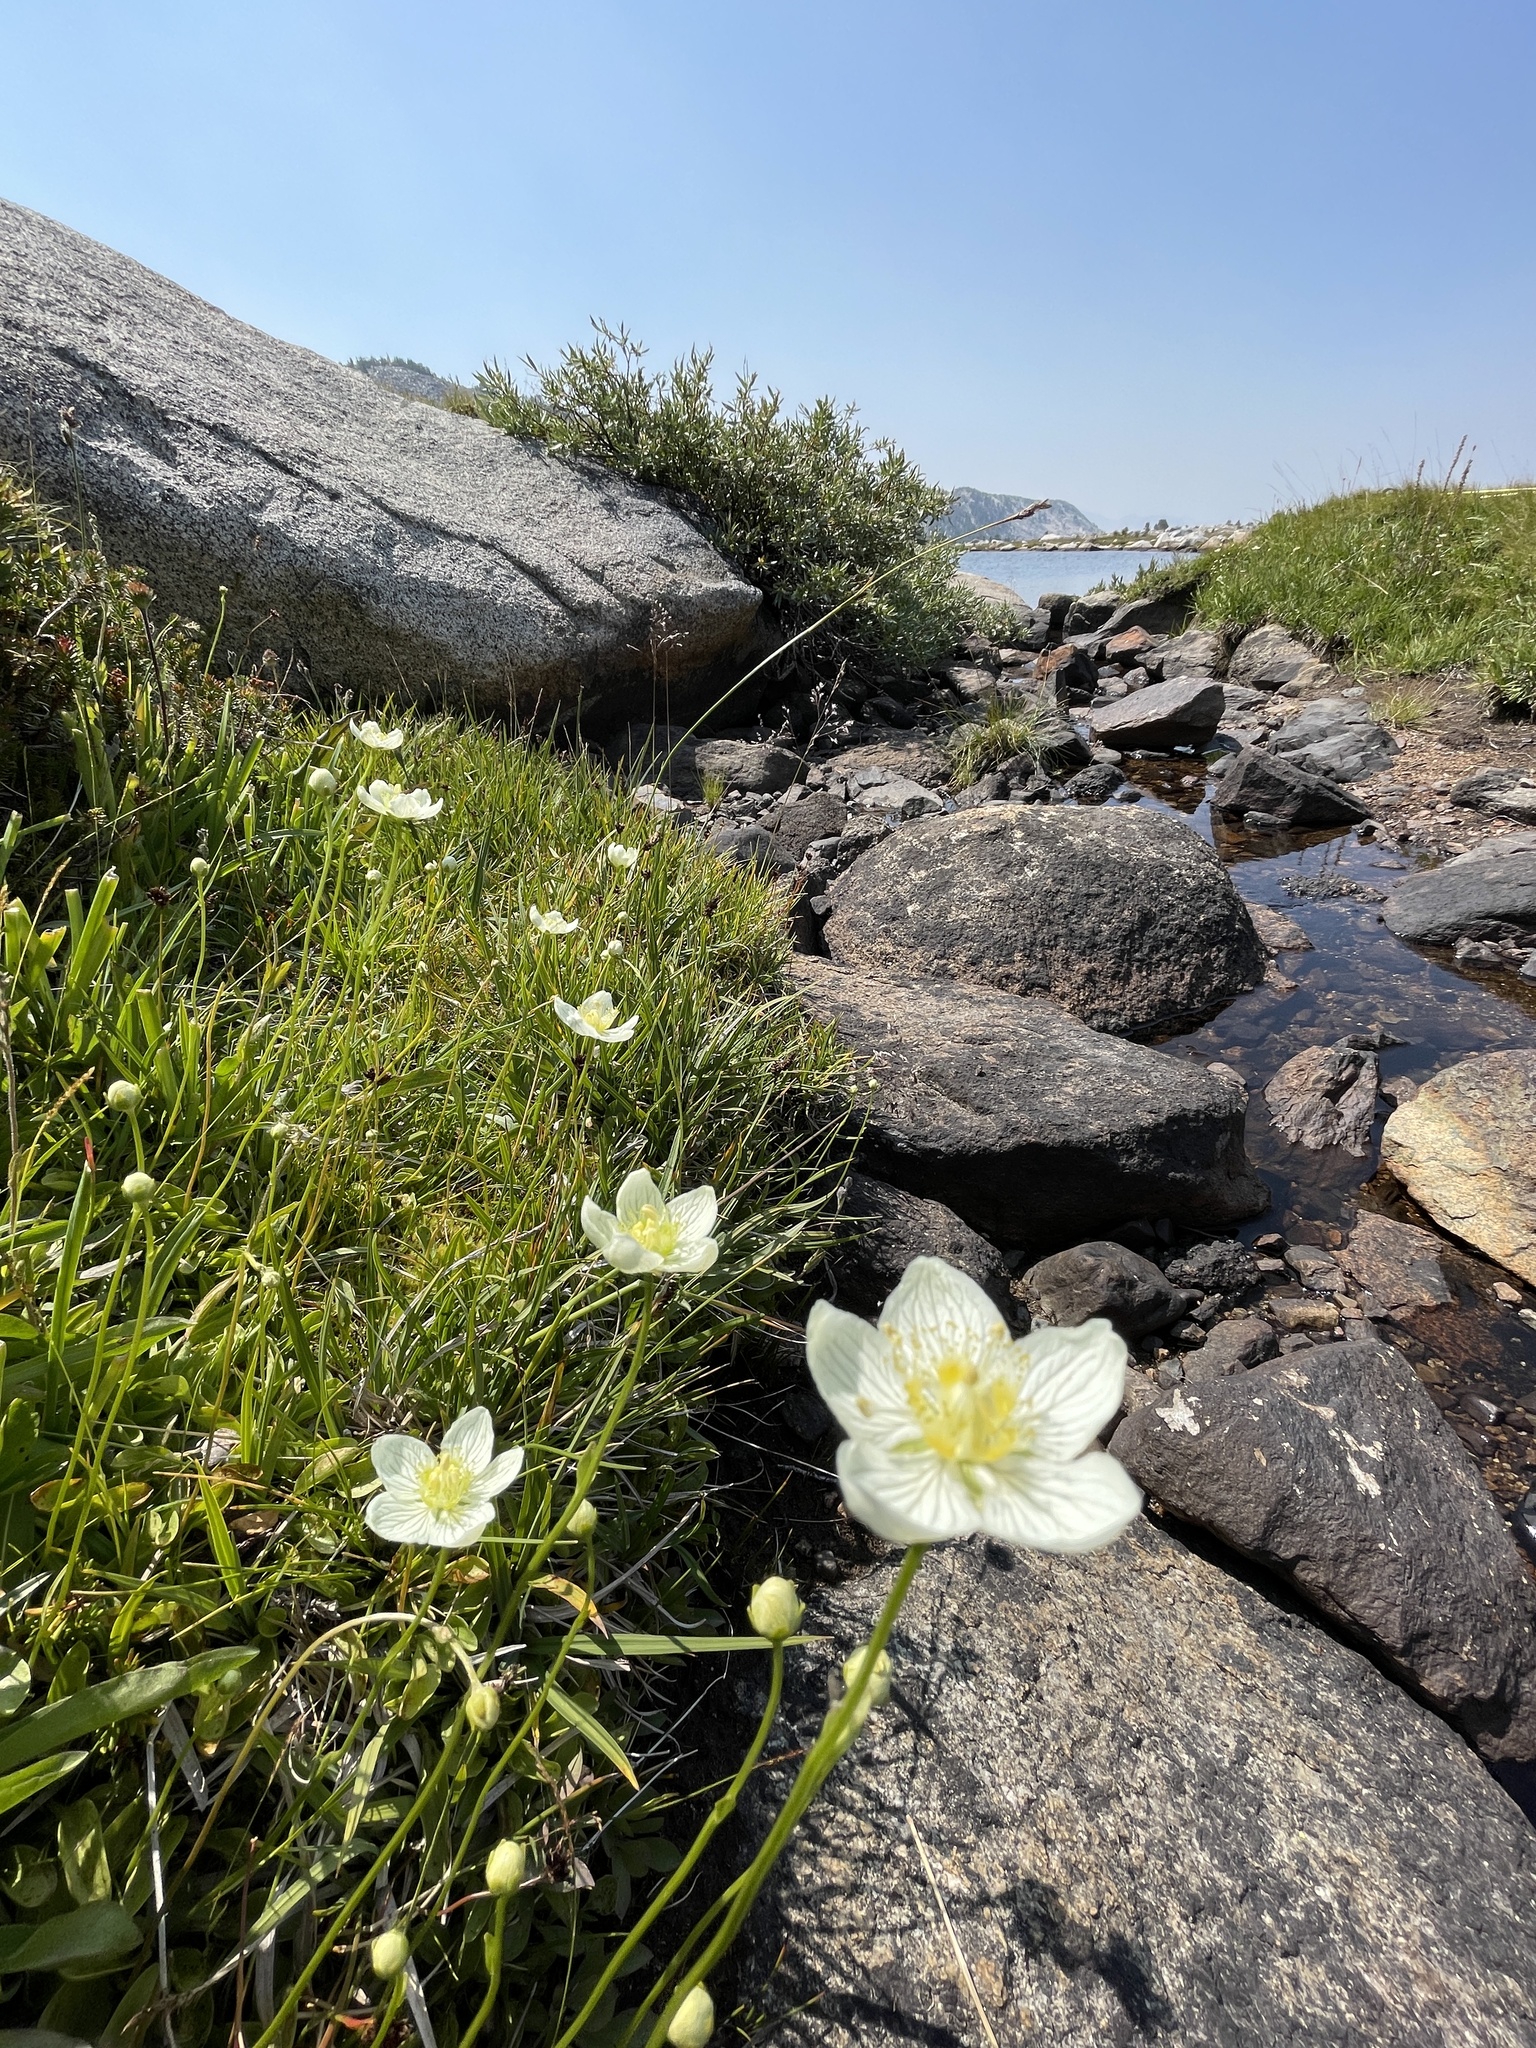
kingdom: Plantae
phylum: Tracheophyta
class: Magnoliopsida
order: Celastrales
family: Parnassiaceae
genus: Parnassia
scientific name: Parnassia palustris
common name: Grass-of-parnassus
